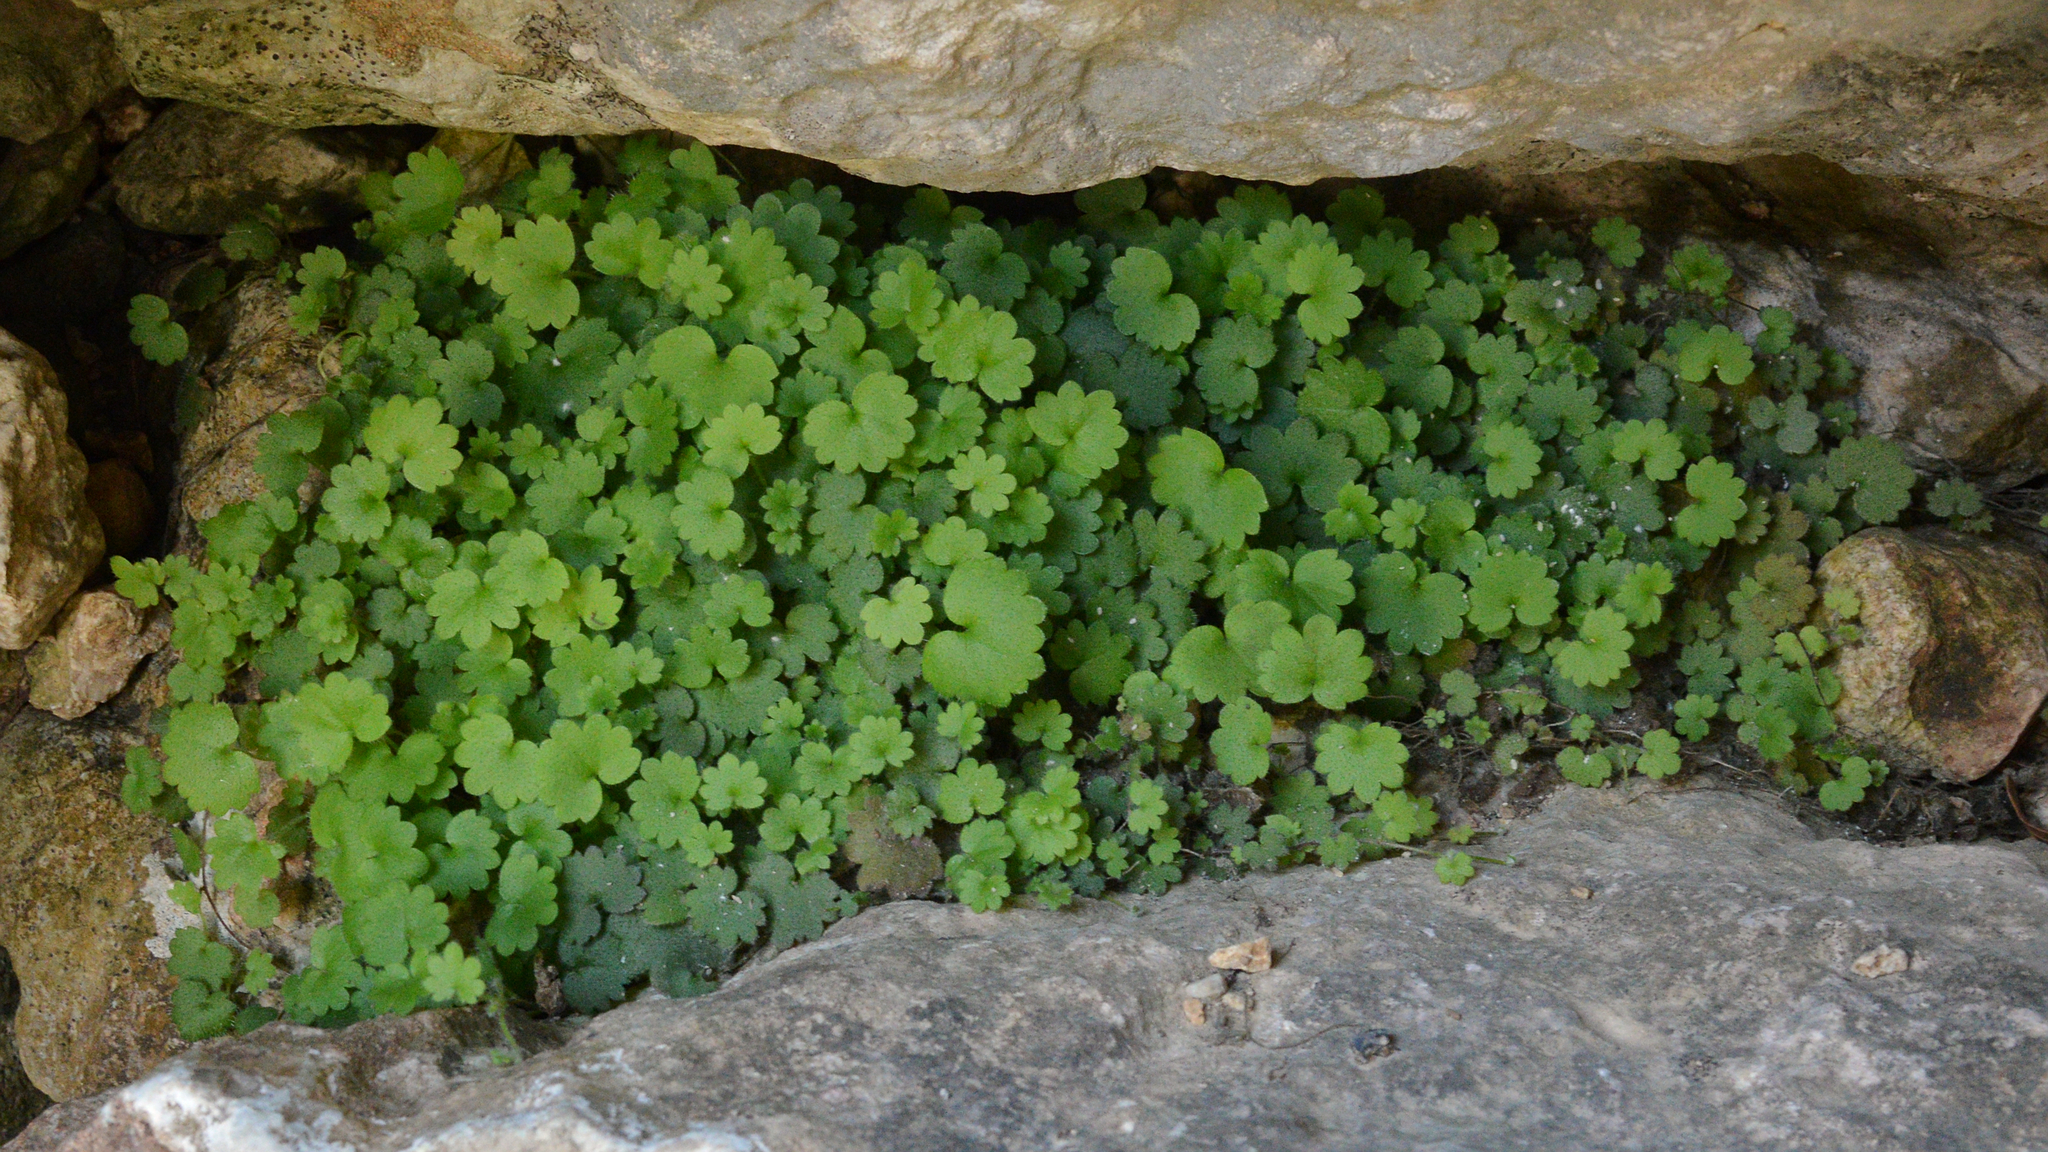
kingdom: Plantae
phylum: Tracheophyta
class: Magnoliopsida
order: Lamiales
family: Plantaginaceae
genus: Sibthorpia
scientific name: Sibthorpia africana
